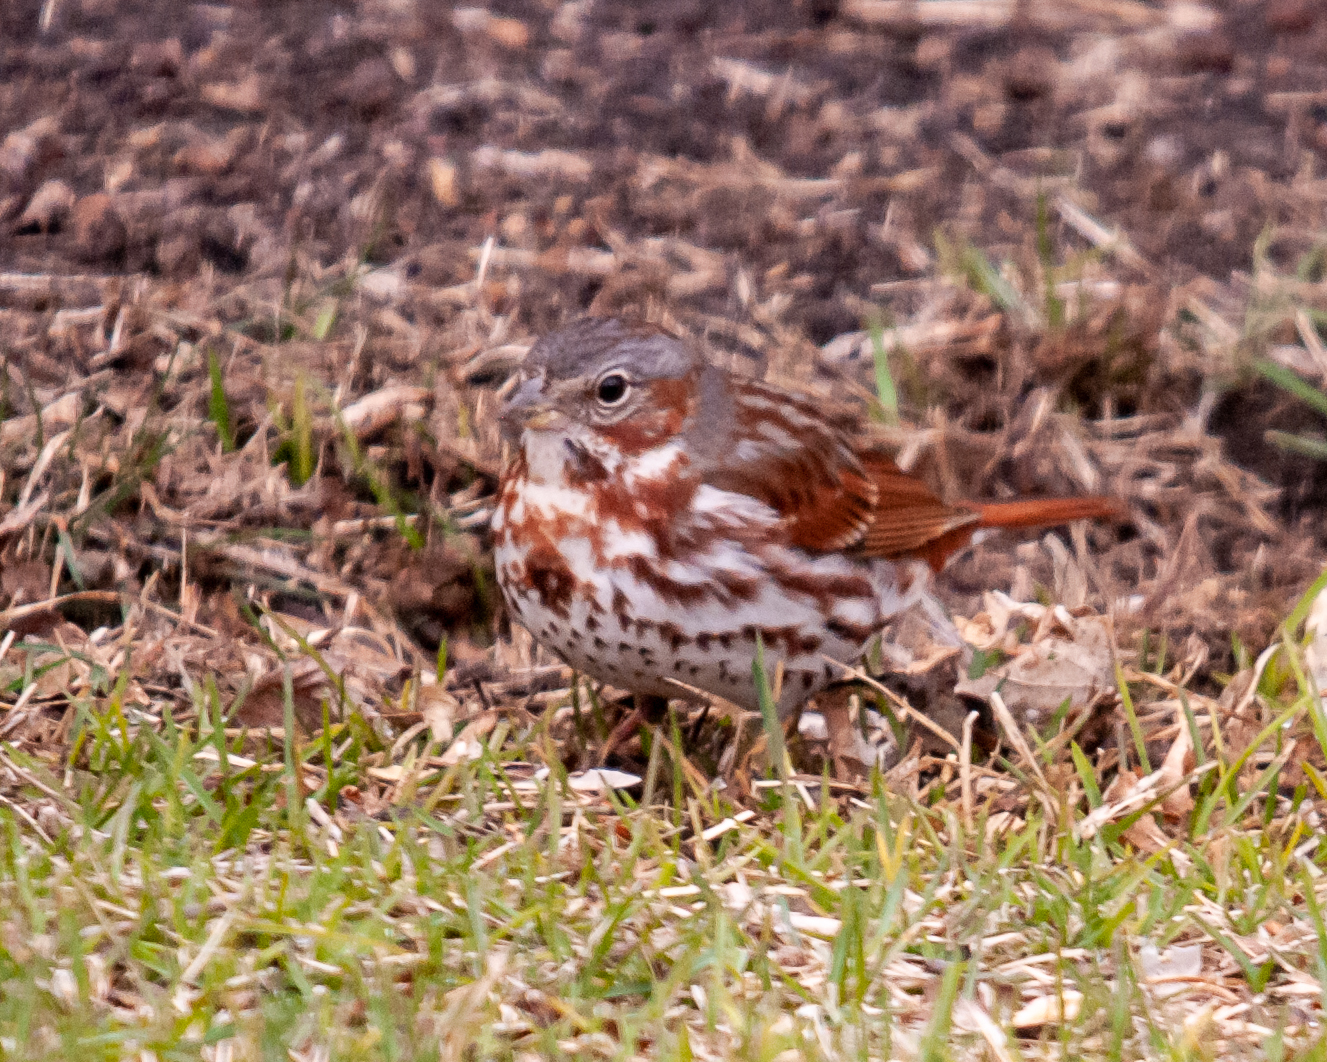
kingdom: Animalia
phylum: Chordata
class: Aves
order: Passeriformes
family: Passerellidae
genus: Passerella
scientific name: Passerella iliaca
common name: Fox sparrow
